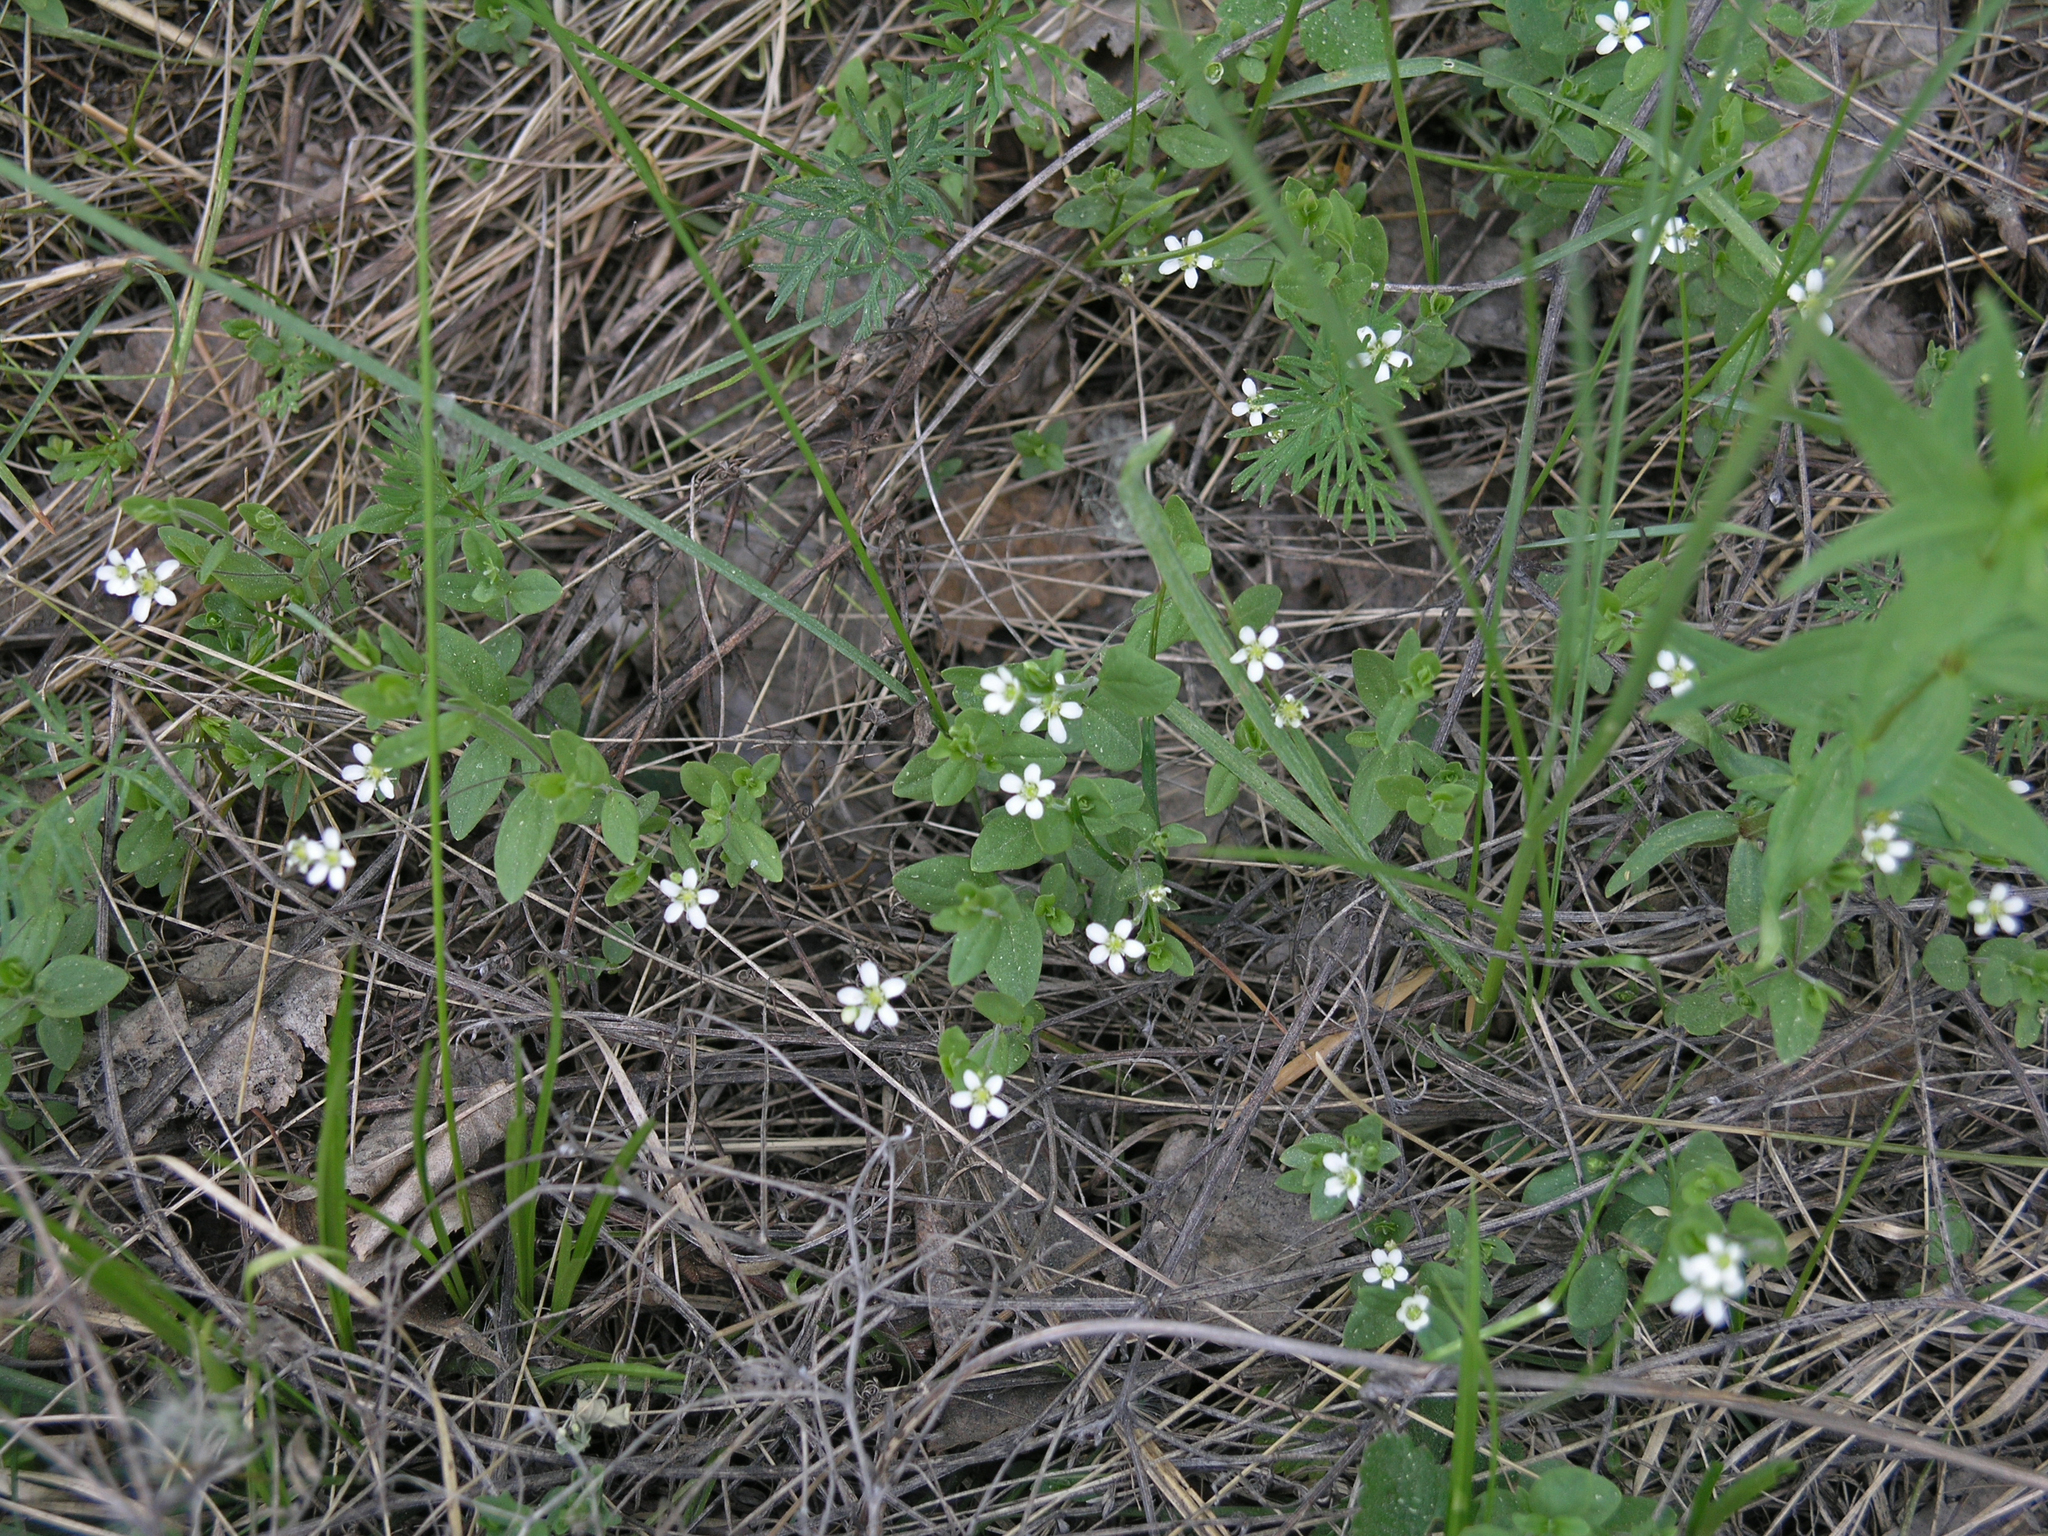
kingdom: Plantae
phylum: Tracheophyta
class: Magnoliopsida
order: Caryophyllales
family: Caryophyllaceae
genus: Moehringia
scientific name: Moehringia lateriflora
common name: Blunt-leaved sandwort
